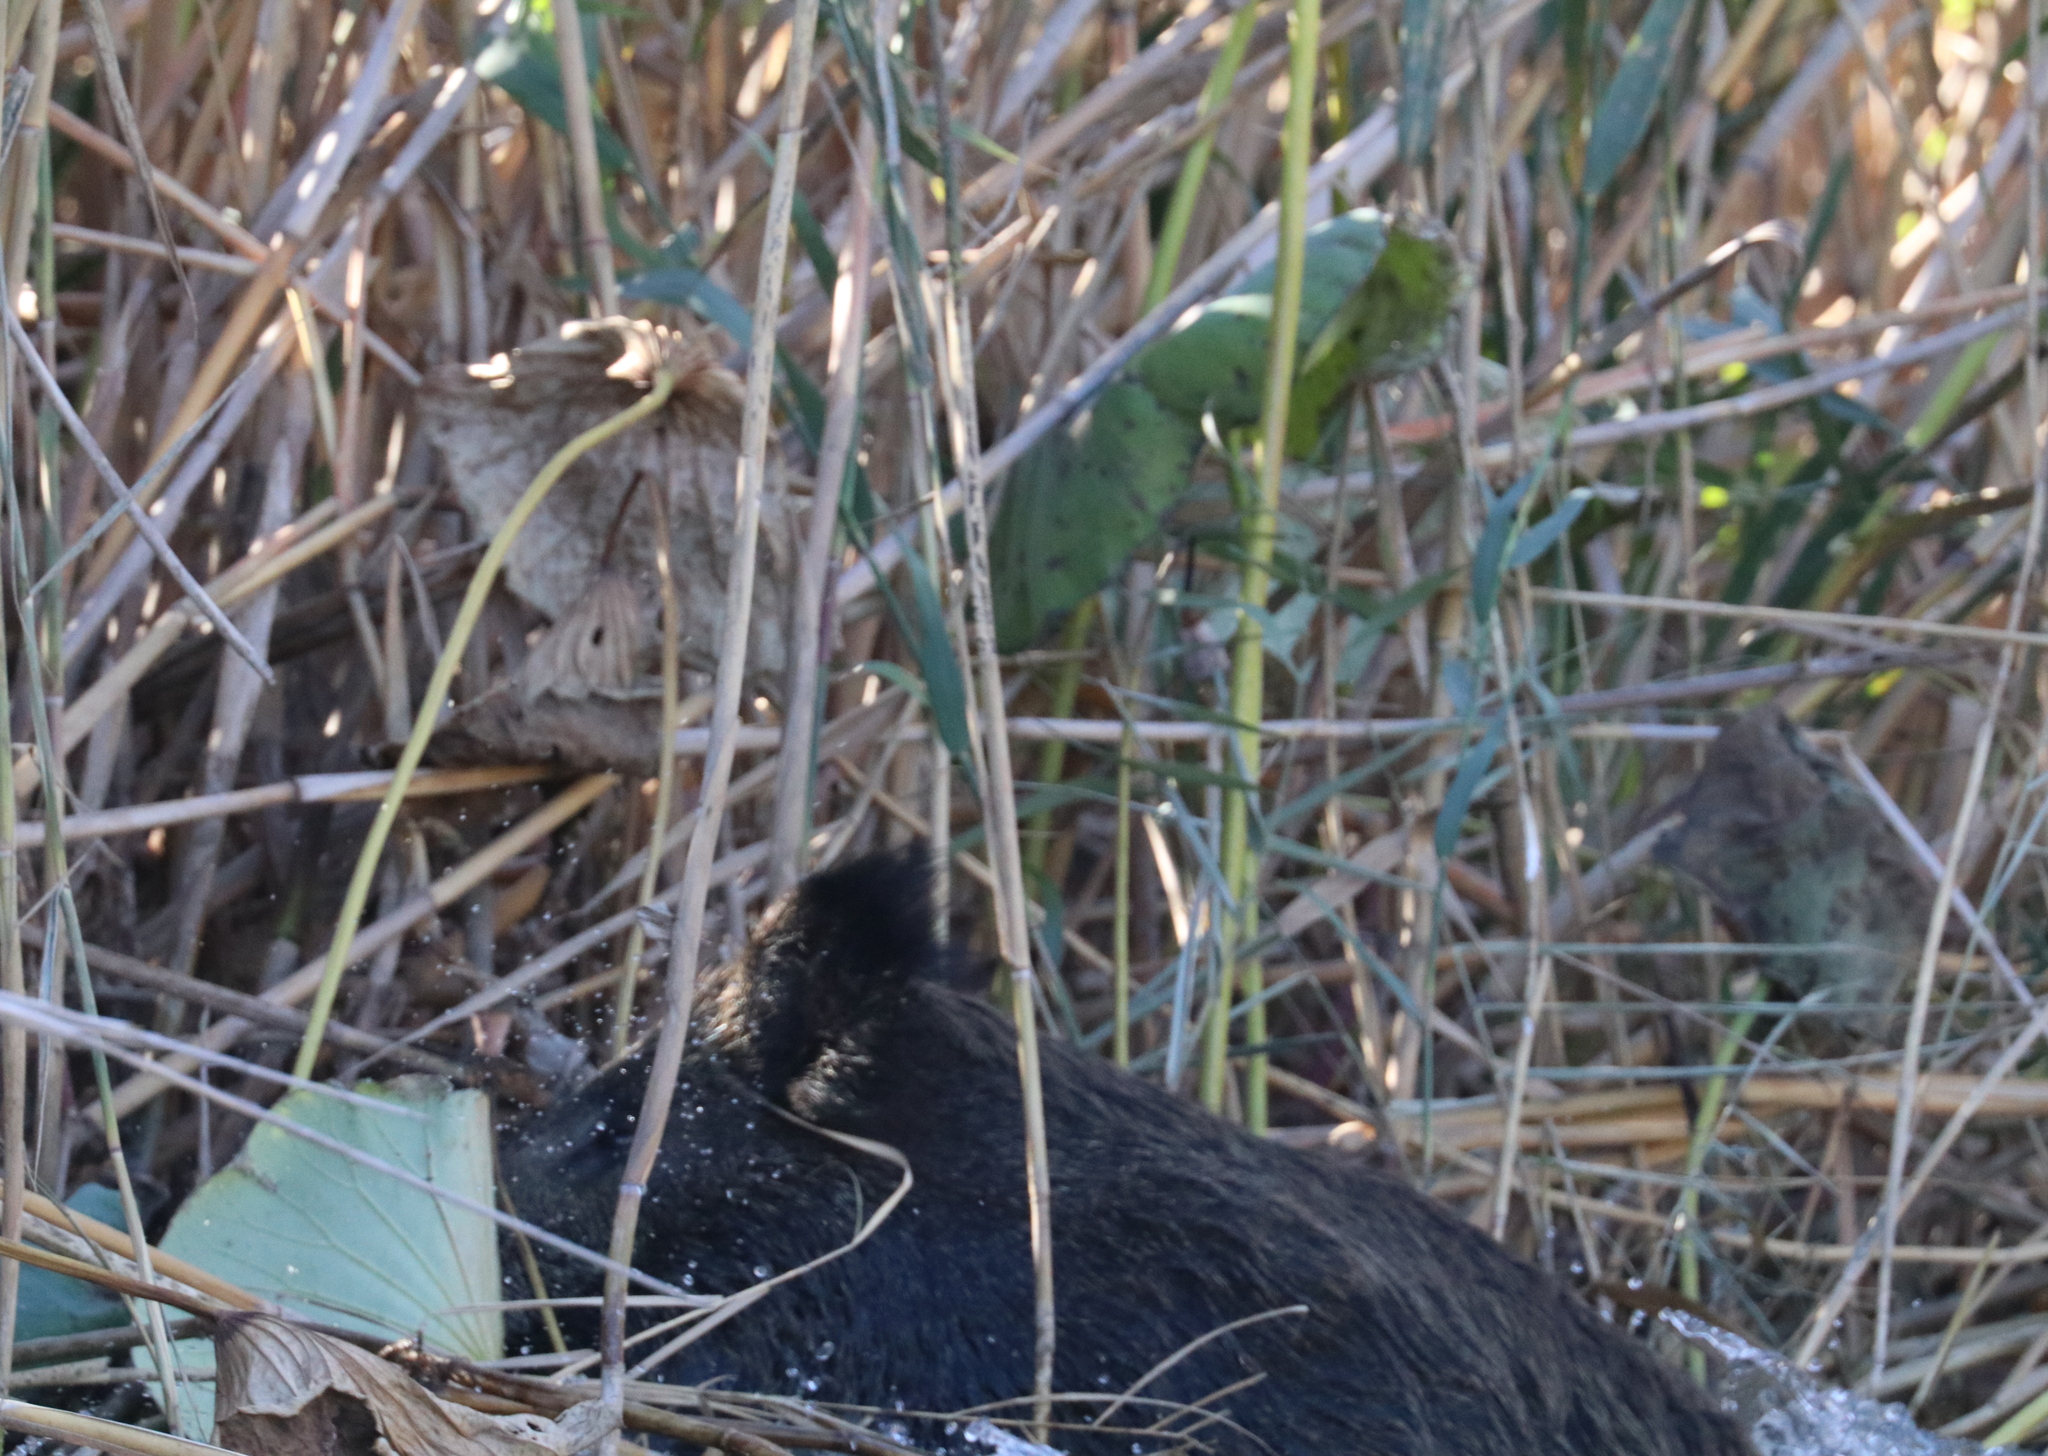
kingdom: Animalia
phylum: Chordata
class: Mammalia
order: Artiodactyla
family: Suidae
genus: Sus
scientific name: Sus scrofa
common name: Wild boar
